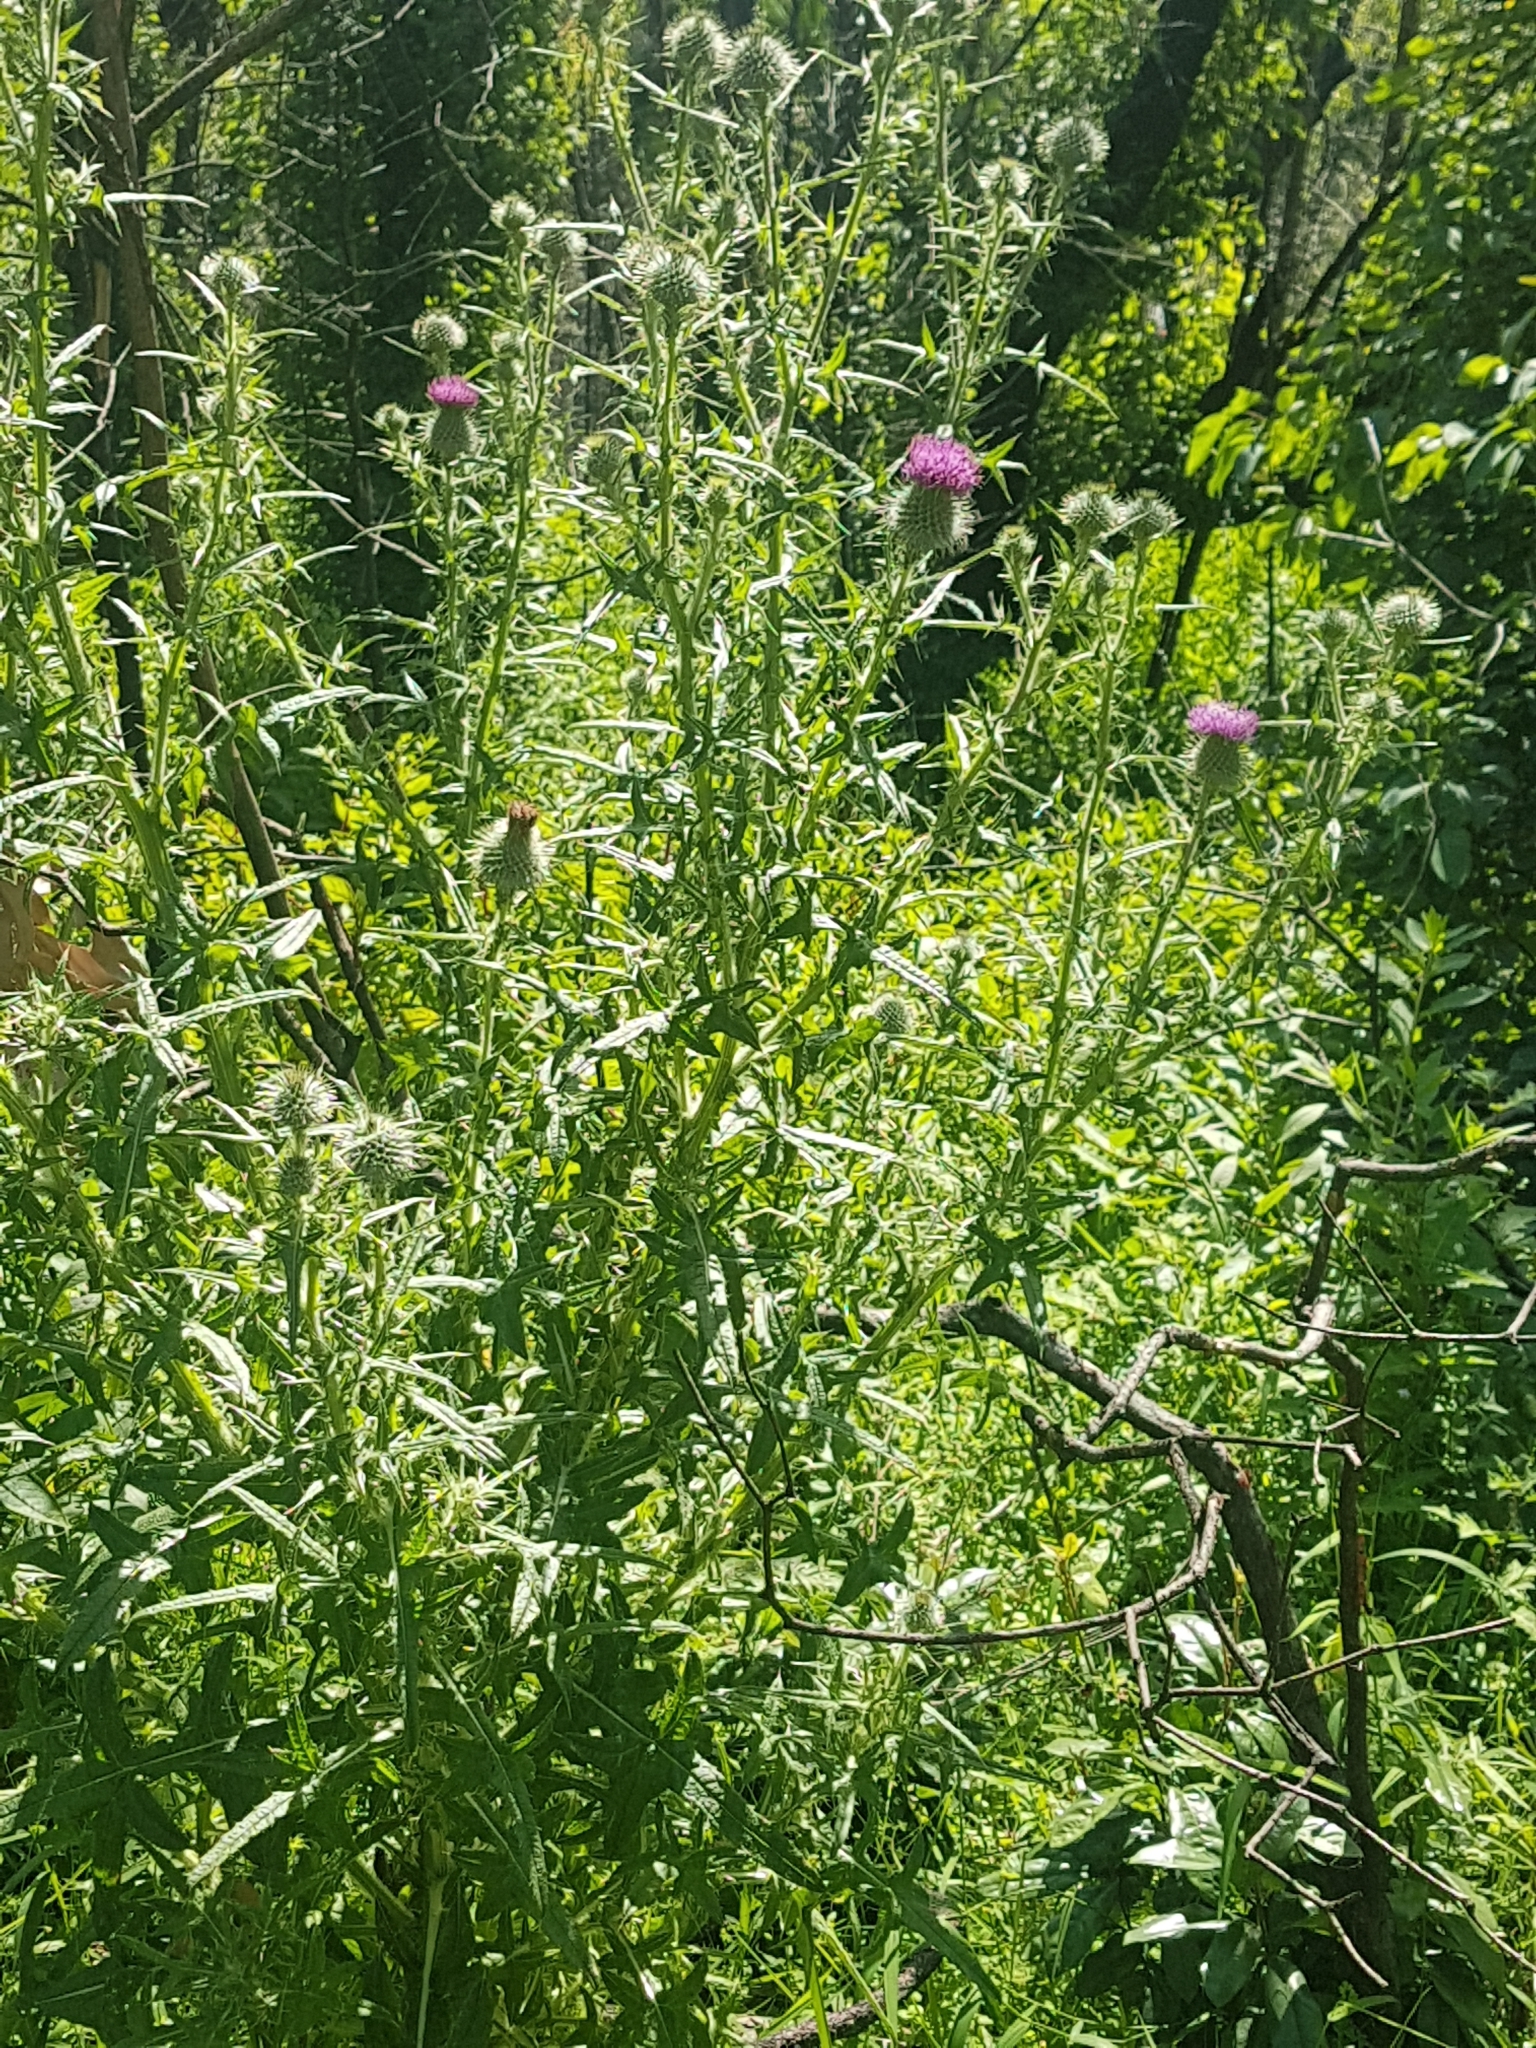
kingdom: Plantae
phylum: Tracheophyta
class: Magnoliopsida
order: Asterales
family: Asteraceae
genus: Cirsium
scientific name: Cirsium vulgare
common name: Bull thistle
